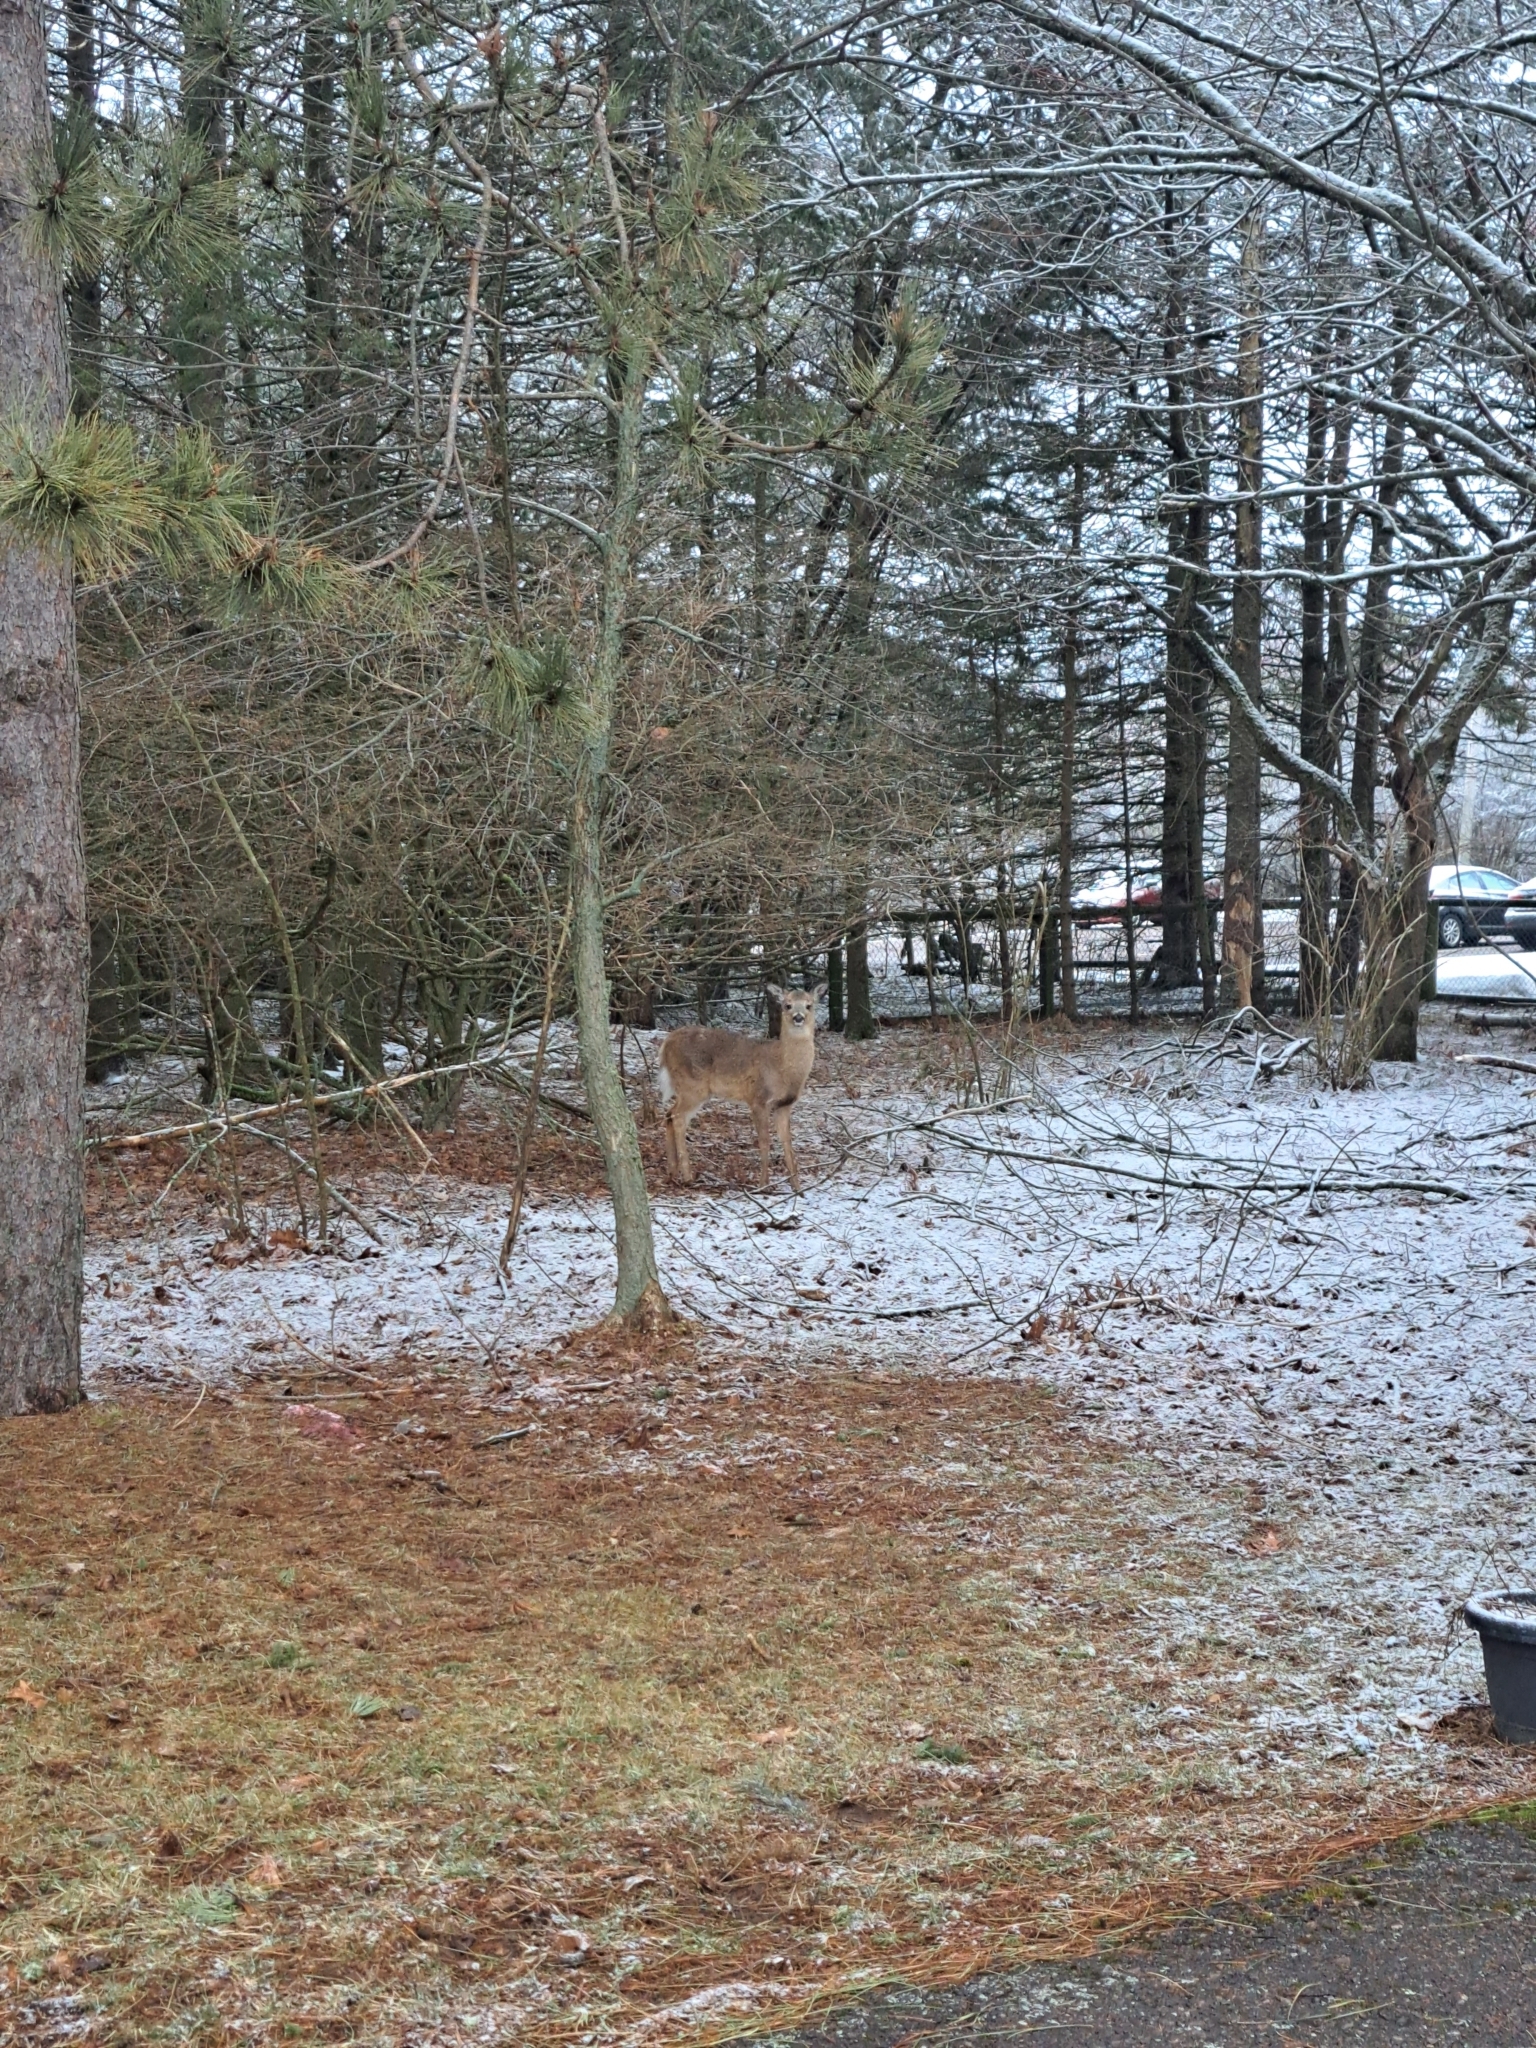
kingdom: Animalia
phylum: Chordata
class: Mammalia
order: Artiodactyla
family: Cervidae
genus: Odocoileus
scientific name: Odocoileus virginianus
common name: White-tailed deer
